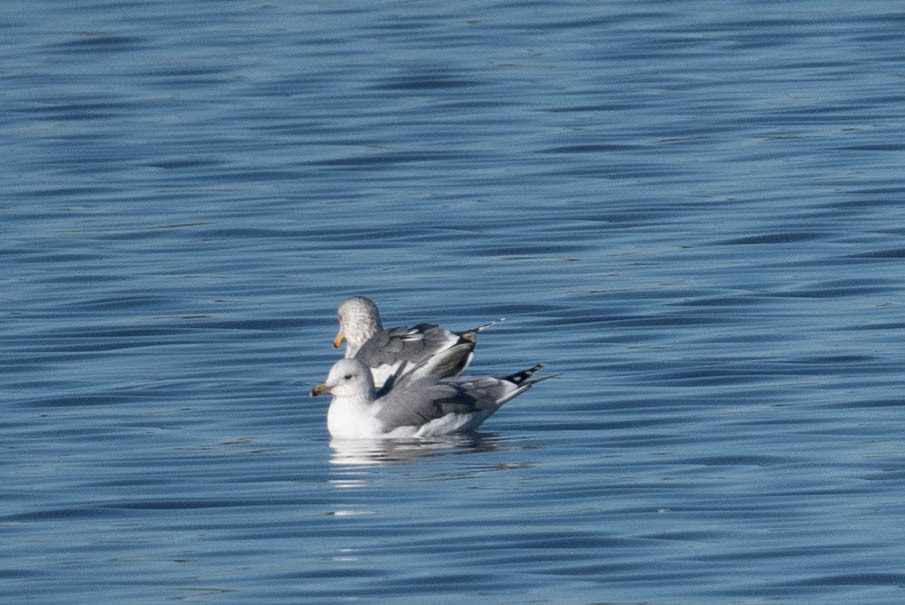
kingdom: Animalia
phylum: Chordata
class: Aves
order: Charadriiformes
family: Laridae
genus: Larus
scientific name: Larus californicus
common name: California gull
